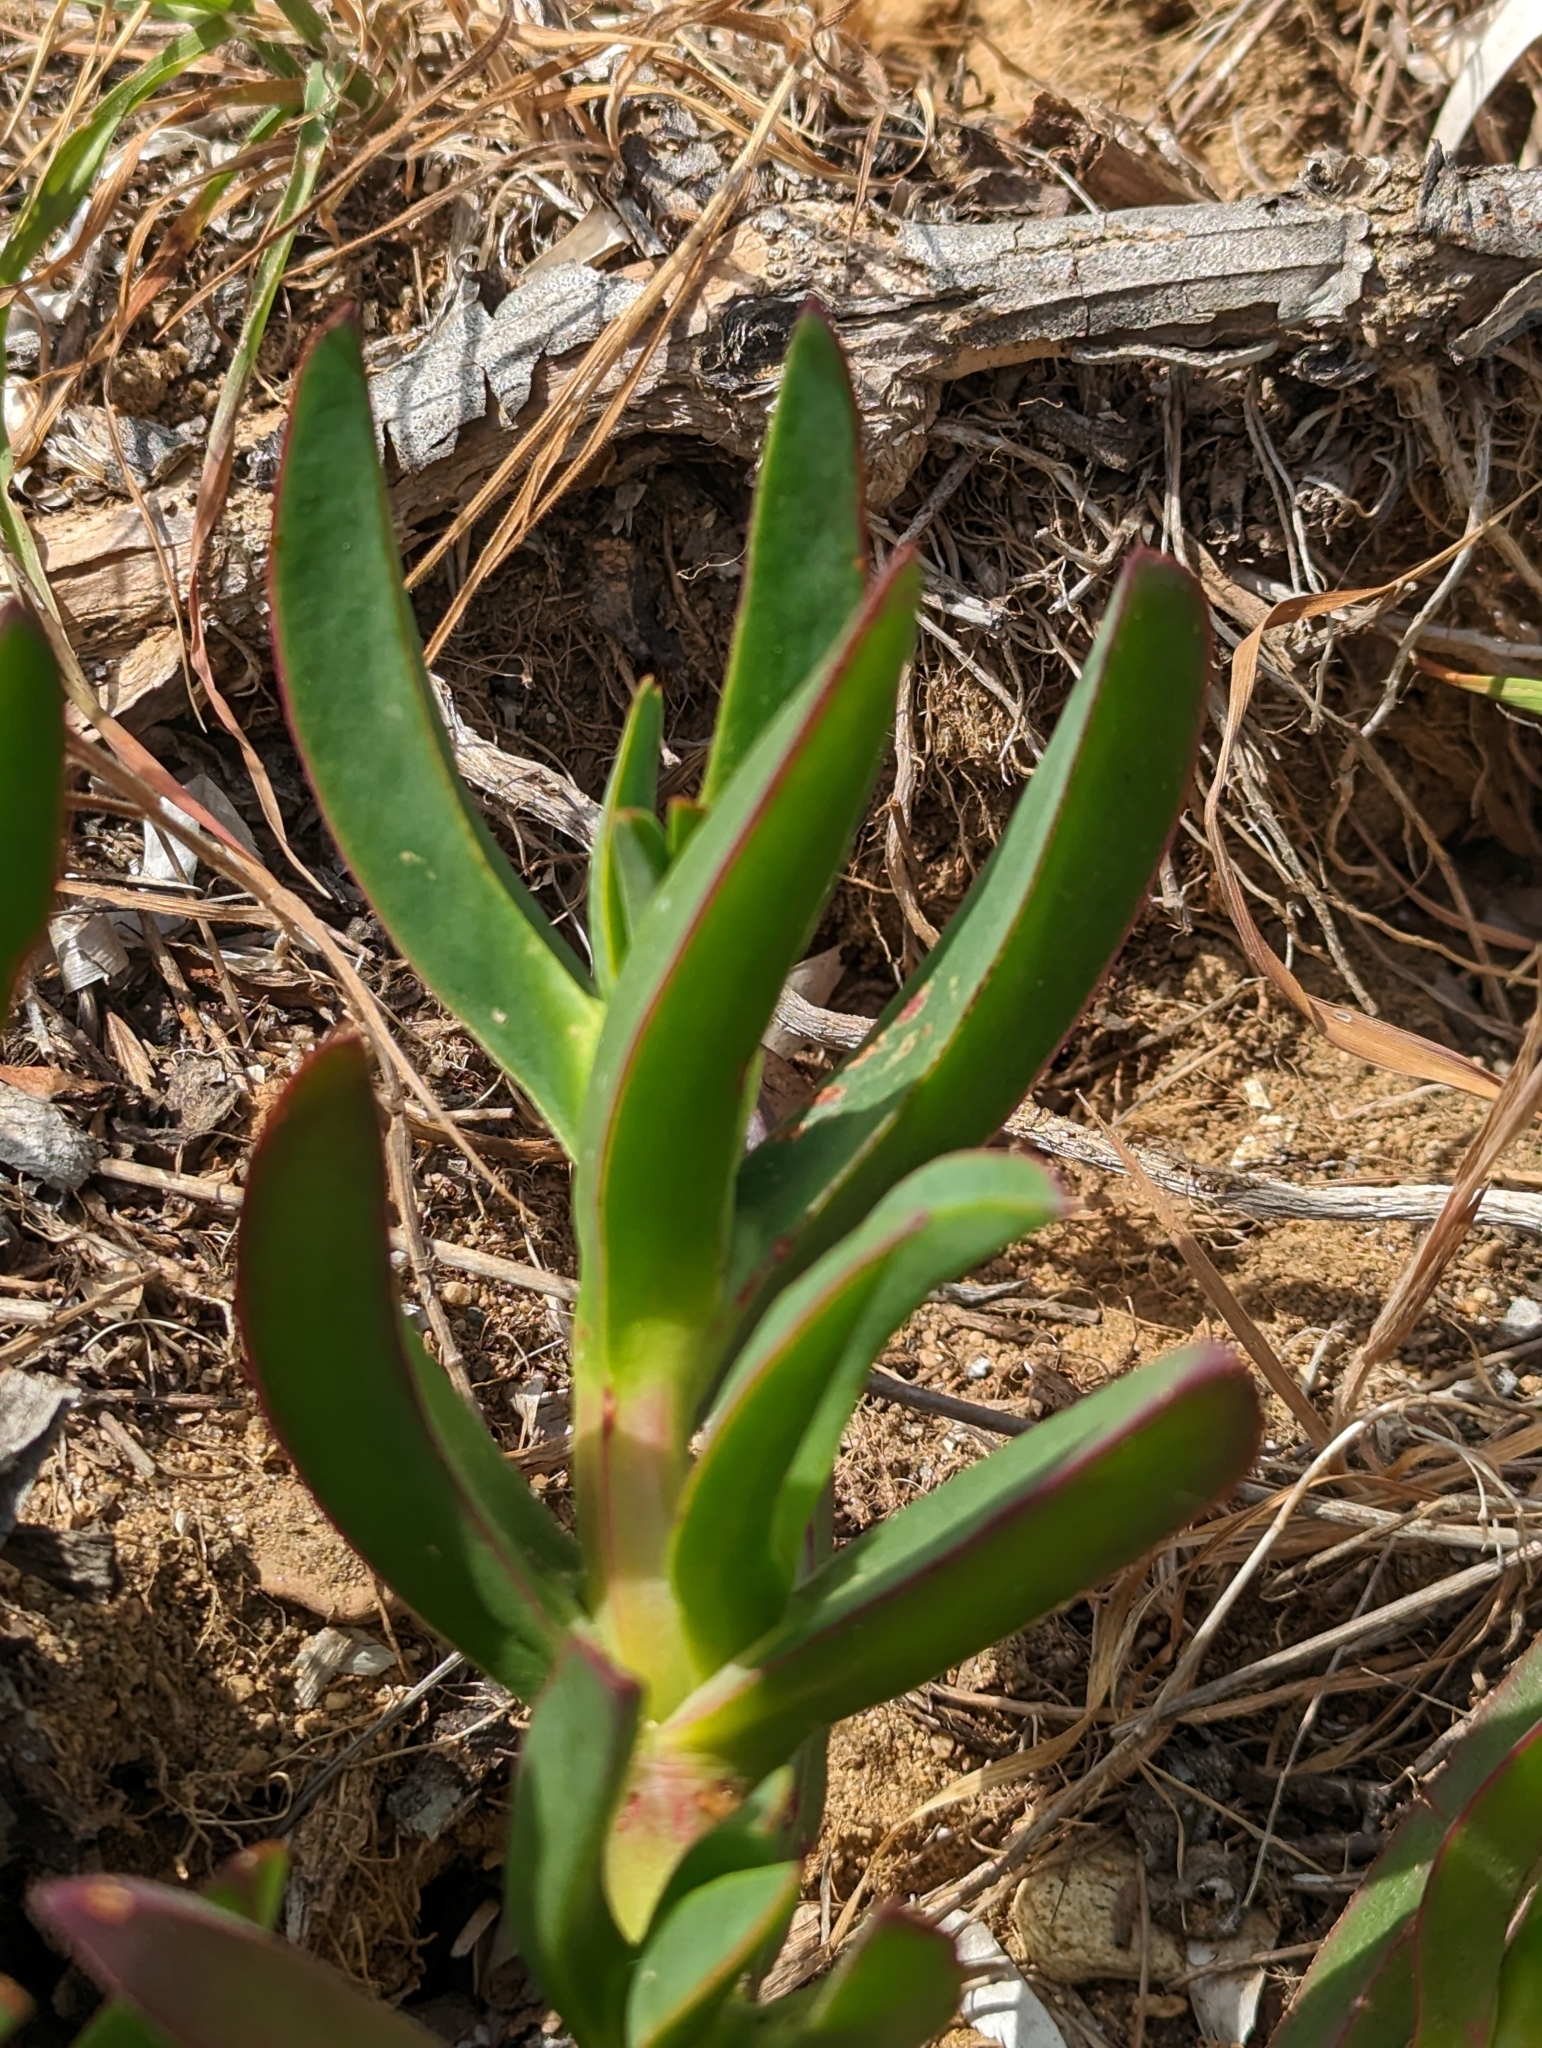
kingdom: Plantae
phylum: Tracheophyta
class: Magnoliopsida
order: Caryophyllales
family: Aizoaceae
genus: Carpobrotus
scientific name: Carpobrotus edulis
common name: Hottentot-fig
